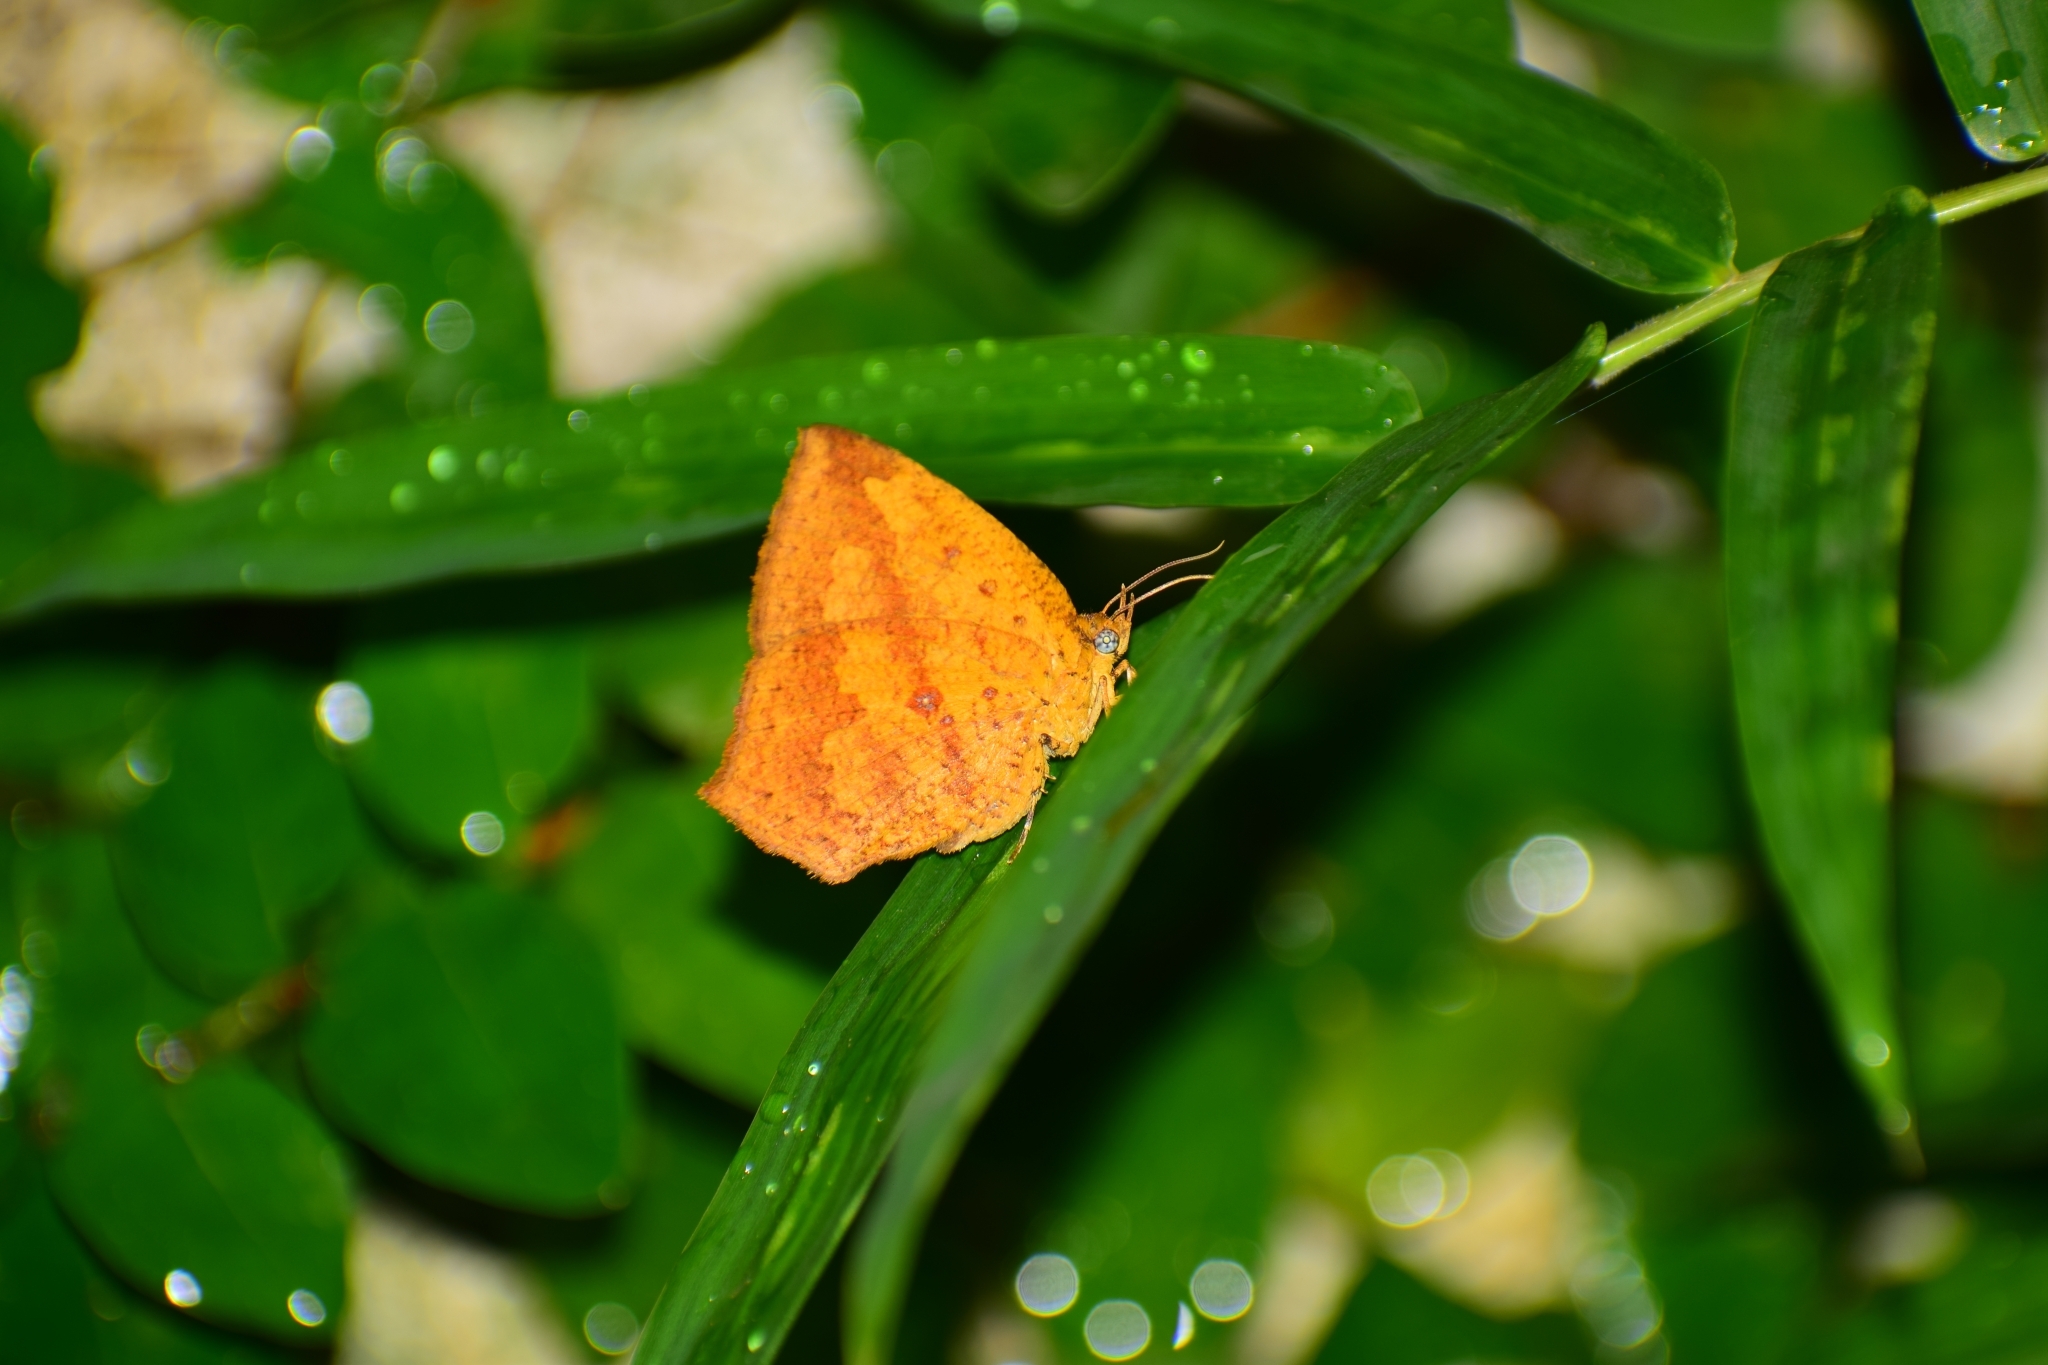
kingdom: Animalia
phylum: Arthropoda
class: Insecta
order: Lepidoptera
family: Callidulidae
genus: Tetragonus
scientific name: Tetragonus catamitus
